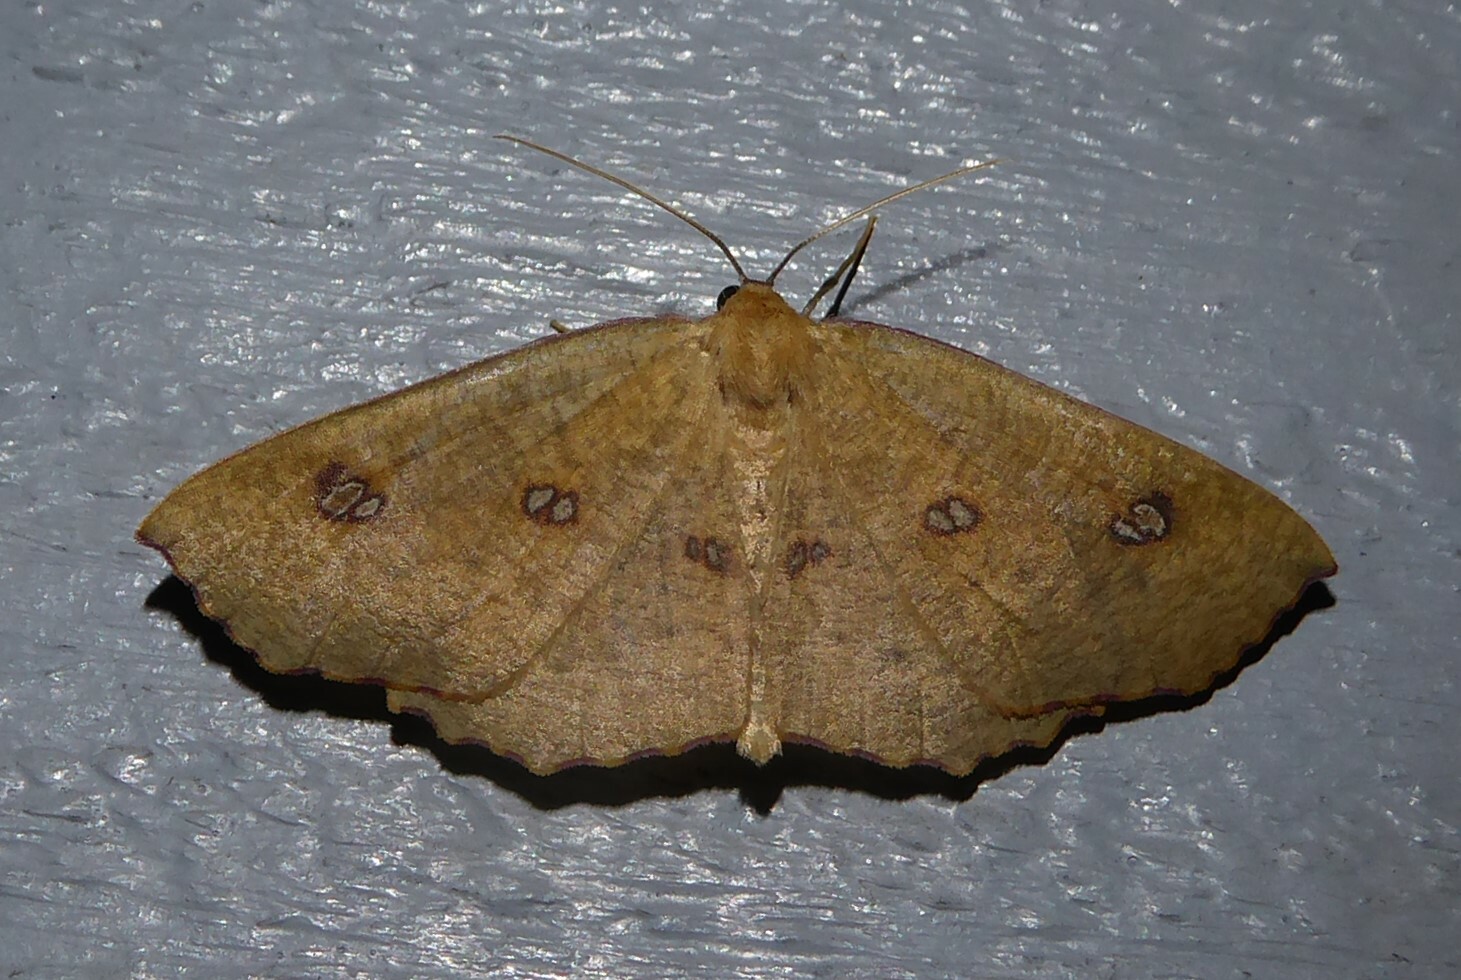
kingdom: Animalia
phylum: Arthropoda
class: Insecta
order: Lepidoptera
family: Geometridae
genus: Xyridacma
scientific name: Xyridacma alectoraria
